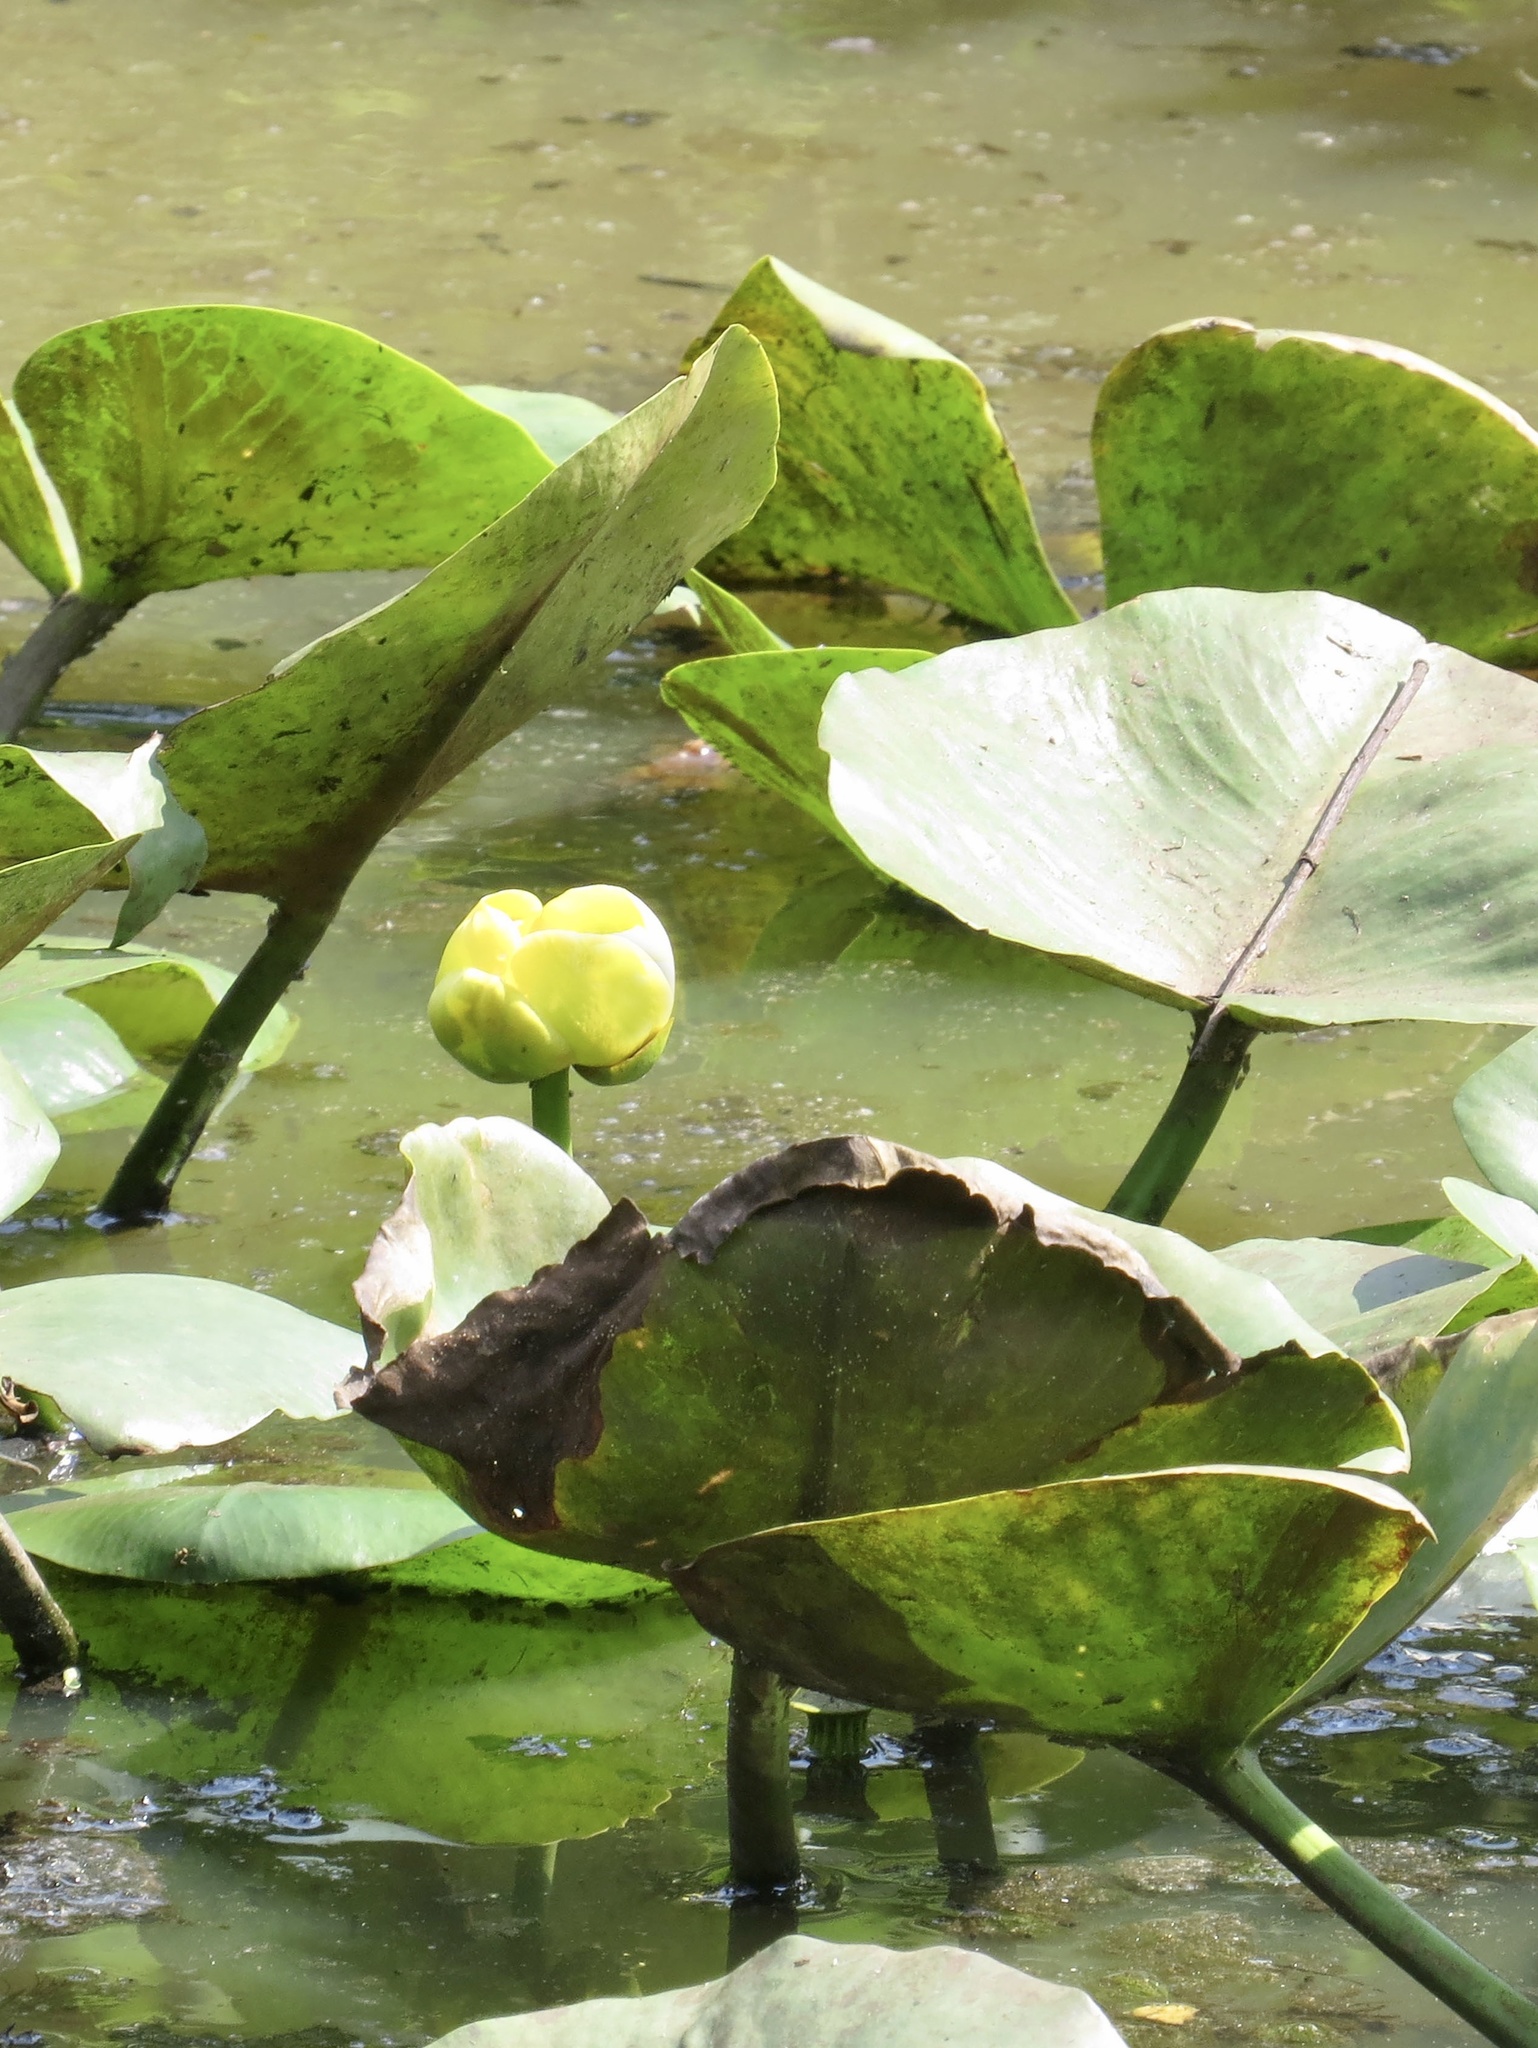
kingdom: Plantae
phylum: Tracheophyta
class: Magnoliopsida
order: Nymphaeales
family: Nymphaeaceae
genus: Nuphar
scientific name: Nuphar advena
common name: Spatter-dock
